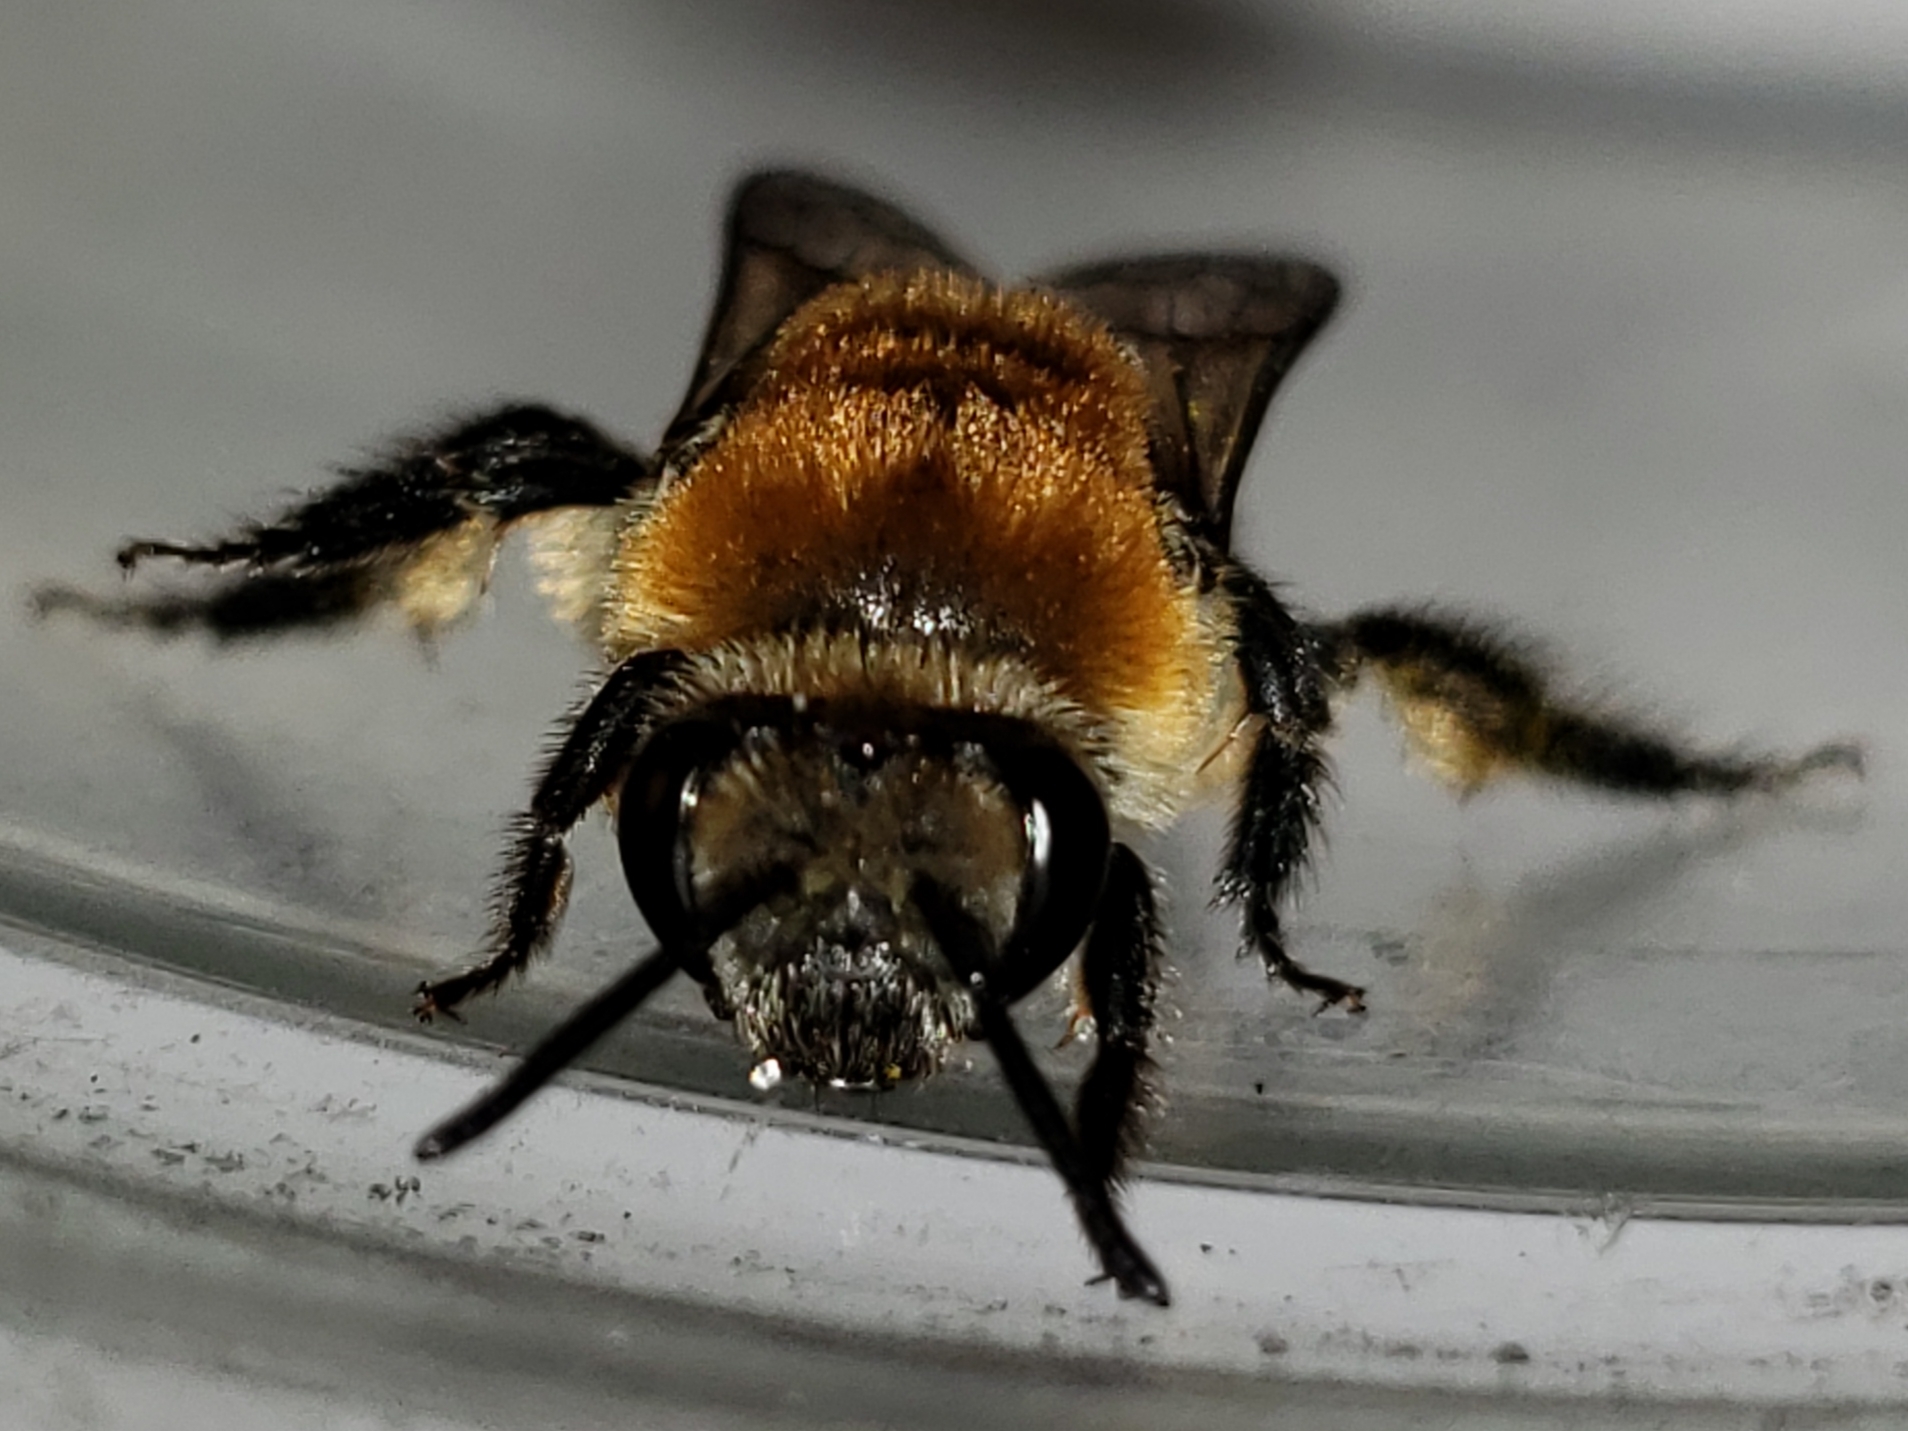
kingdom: Animalia
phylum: Arthropoda
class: Insecta
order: Hymenoptera
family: Colletidae
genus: Colletes
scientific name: Colletes thoracicus
